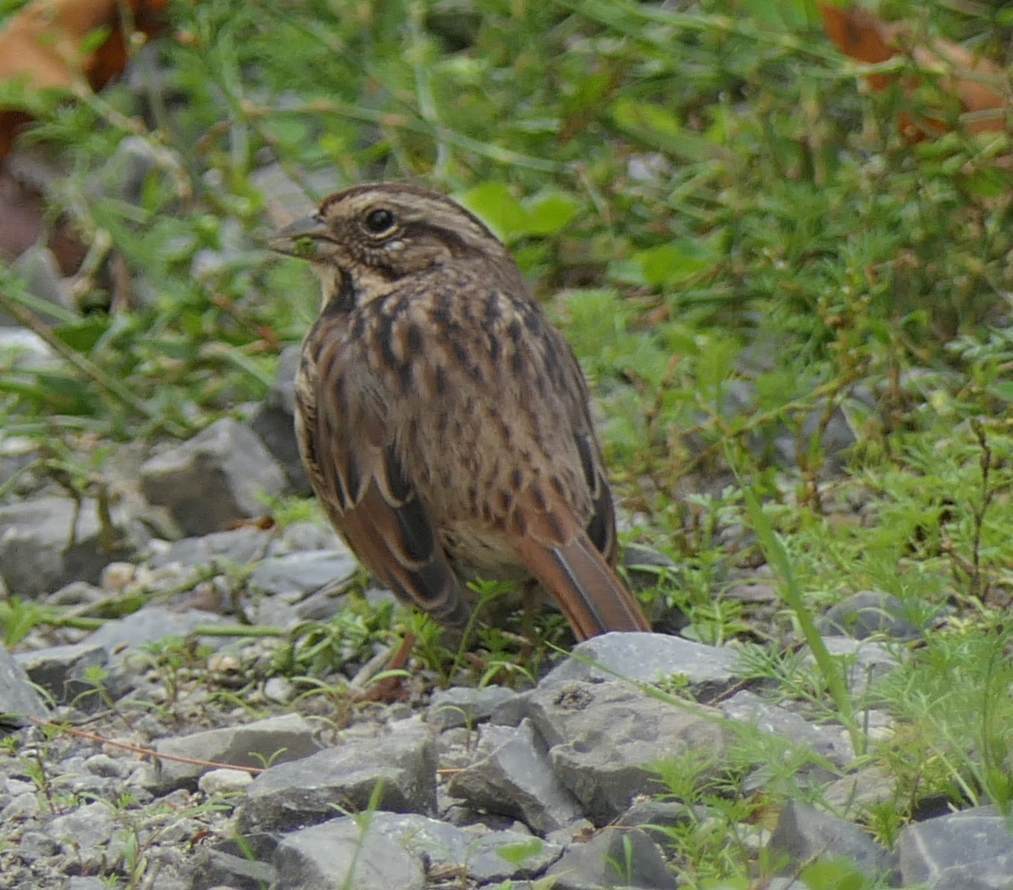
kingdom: Animalia
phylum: Chordata
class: Aves
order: Passeriformes
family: Passerellidae
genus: Melospiza
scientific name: Melospiza melodia
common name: Song sparrow
